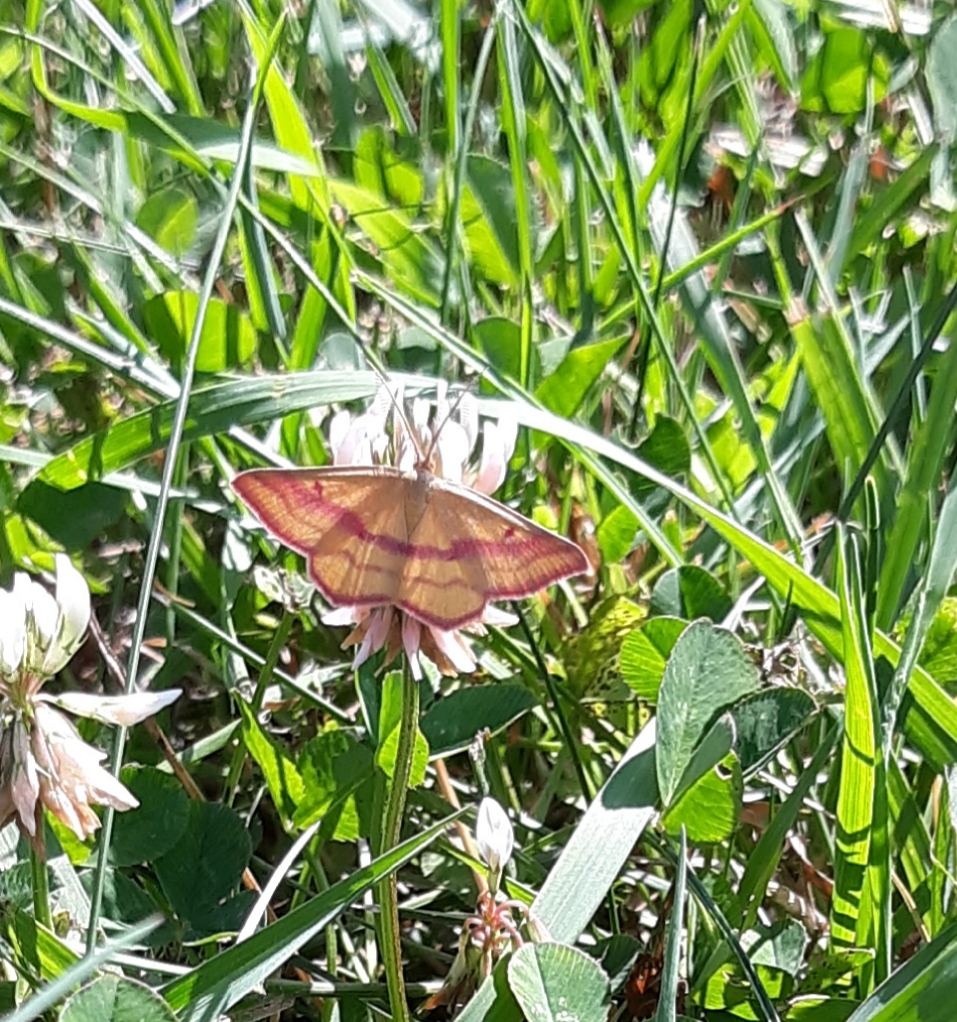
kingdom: Animalia
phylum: Arthropoda
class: Insecta
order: Lepidoptera
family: Geometridae
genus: Haematopis
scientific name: Haematopis grataria
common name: Chickweed geometer
